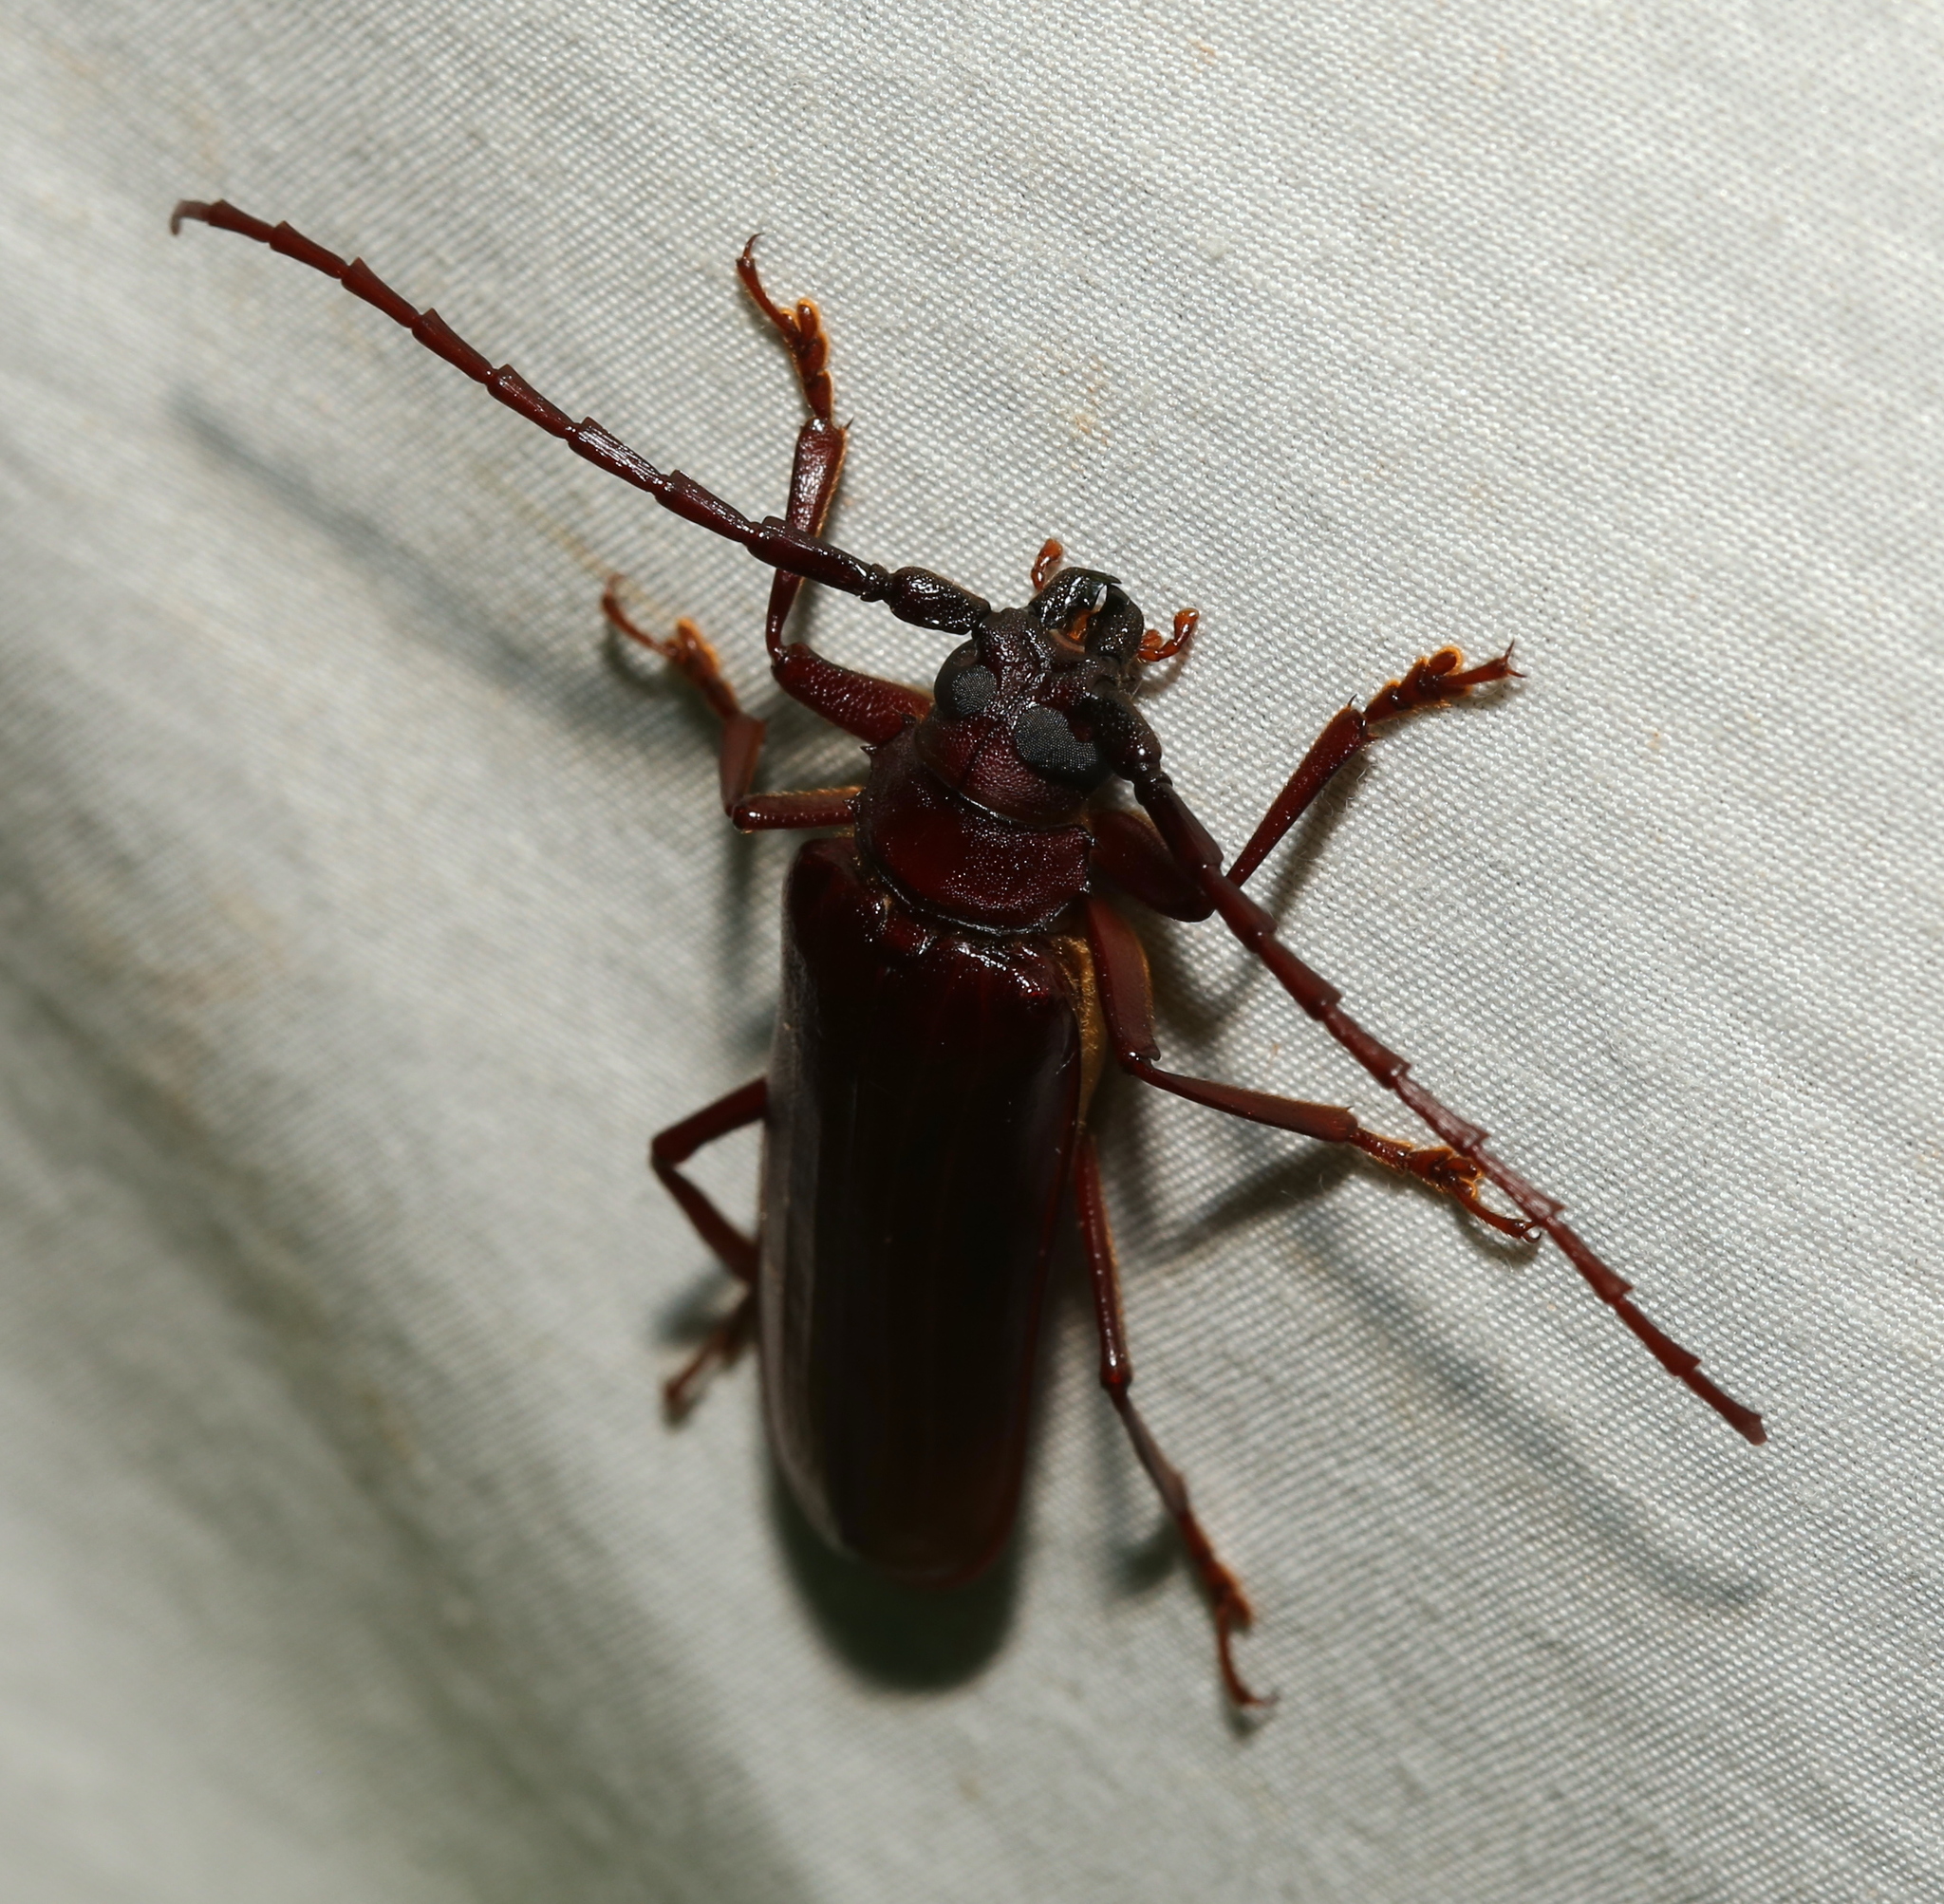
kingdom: Animalia
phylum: Arthropoda
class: Insecta
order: Coleoptera
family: Cerambycidae
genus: Orthosoma
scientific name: Orthosoma brunneum
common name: Brown prionid beetle
